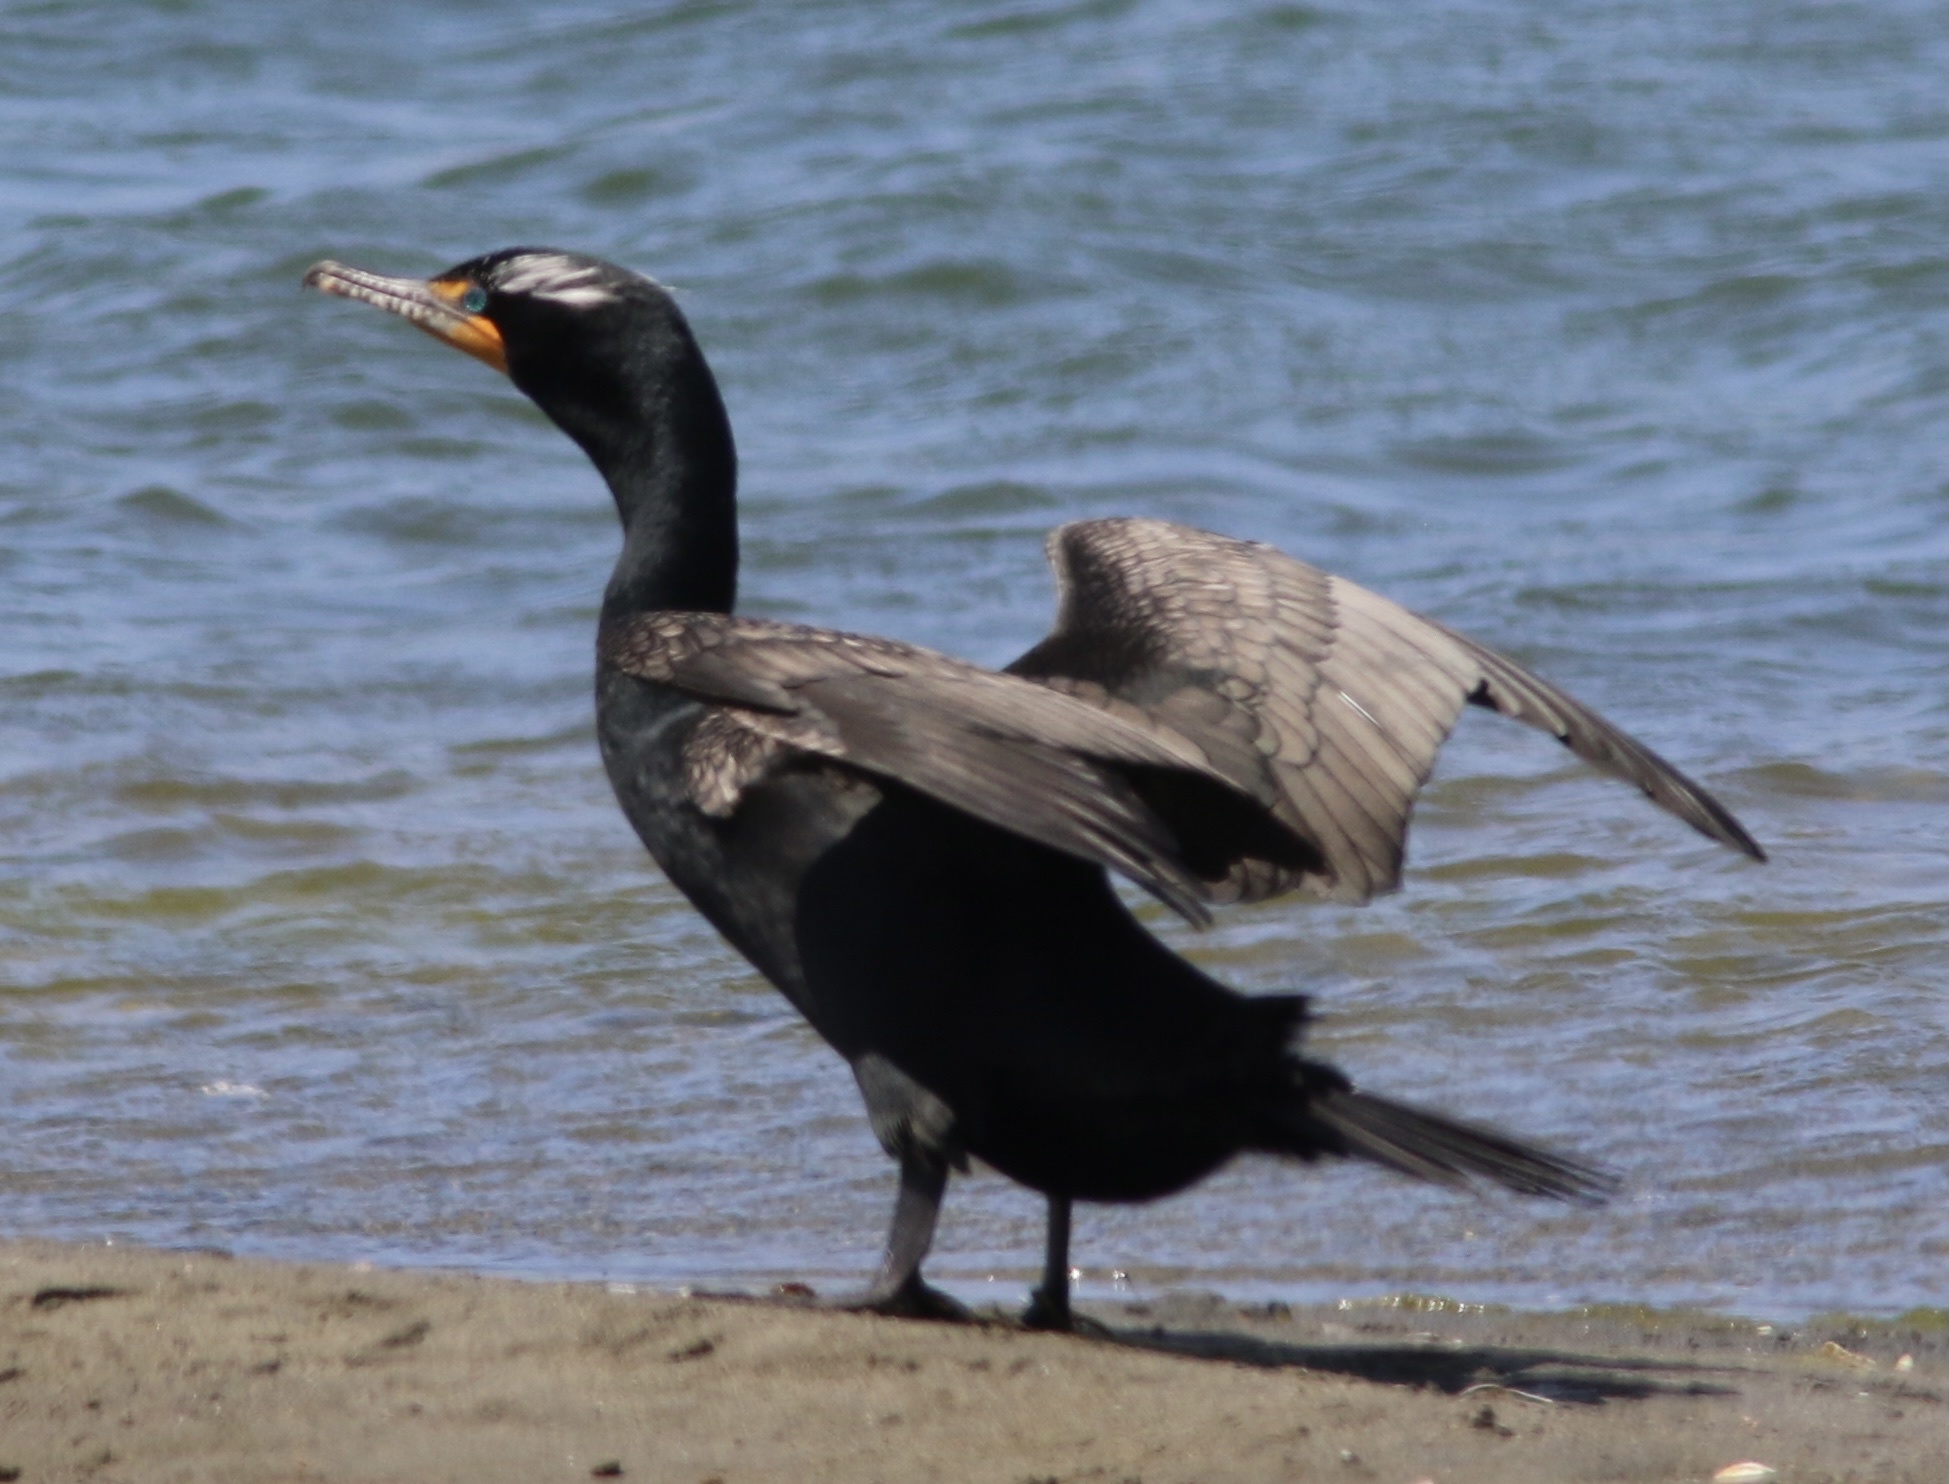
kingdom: Animalia
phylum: Chordata
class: Aves
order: Suliformes
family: Phalacrocoracidae
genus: Phalacrocorax
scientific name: Phalacrocorax auritus
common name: Double-crested cormorant
